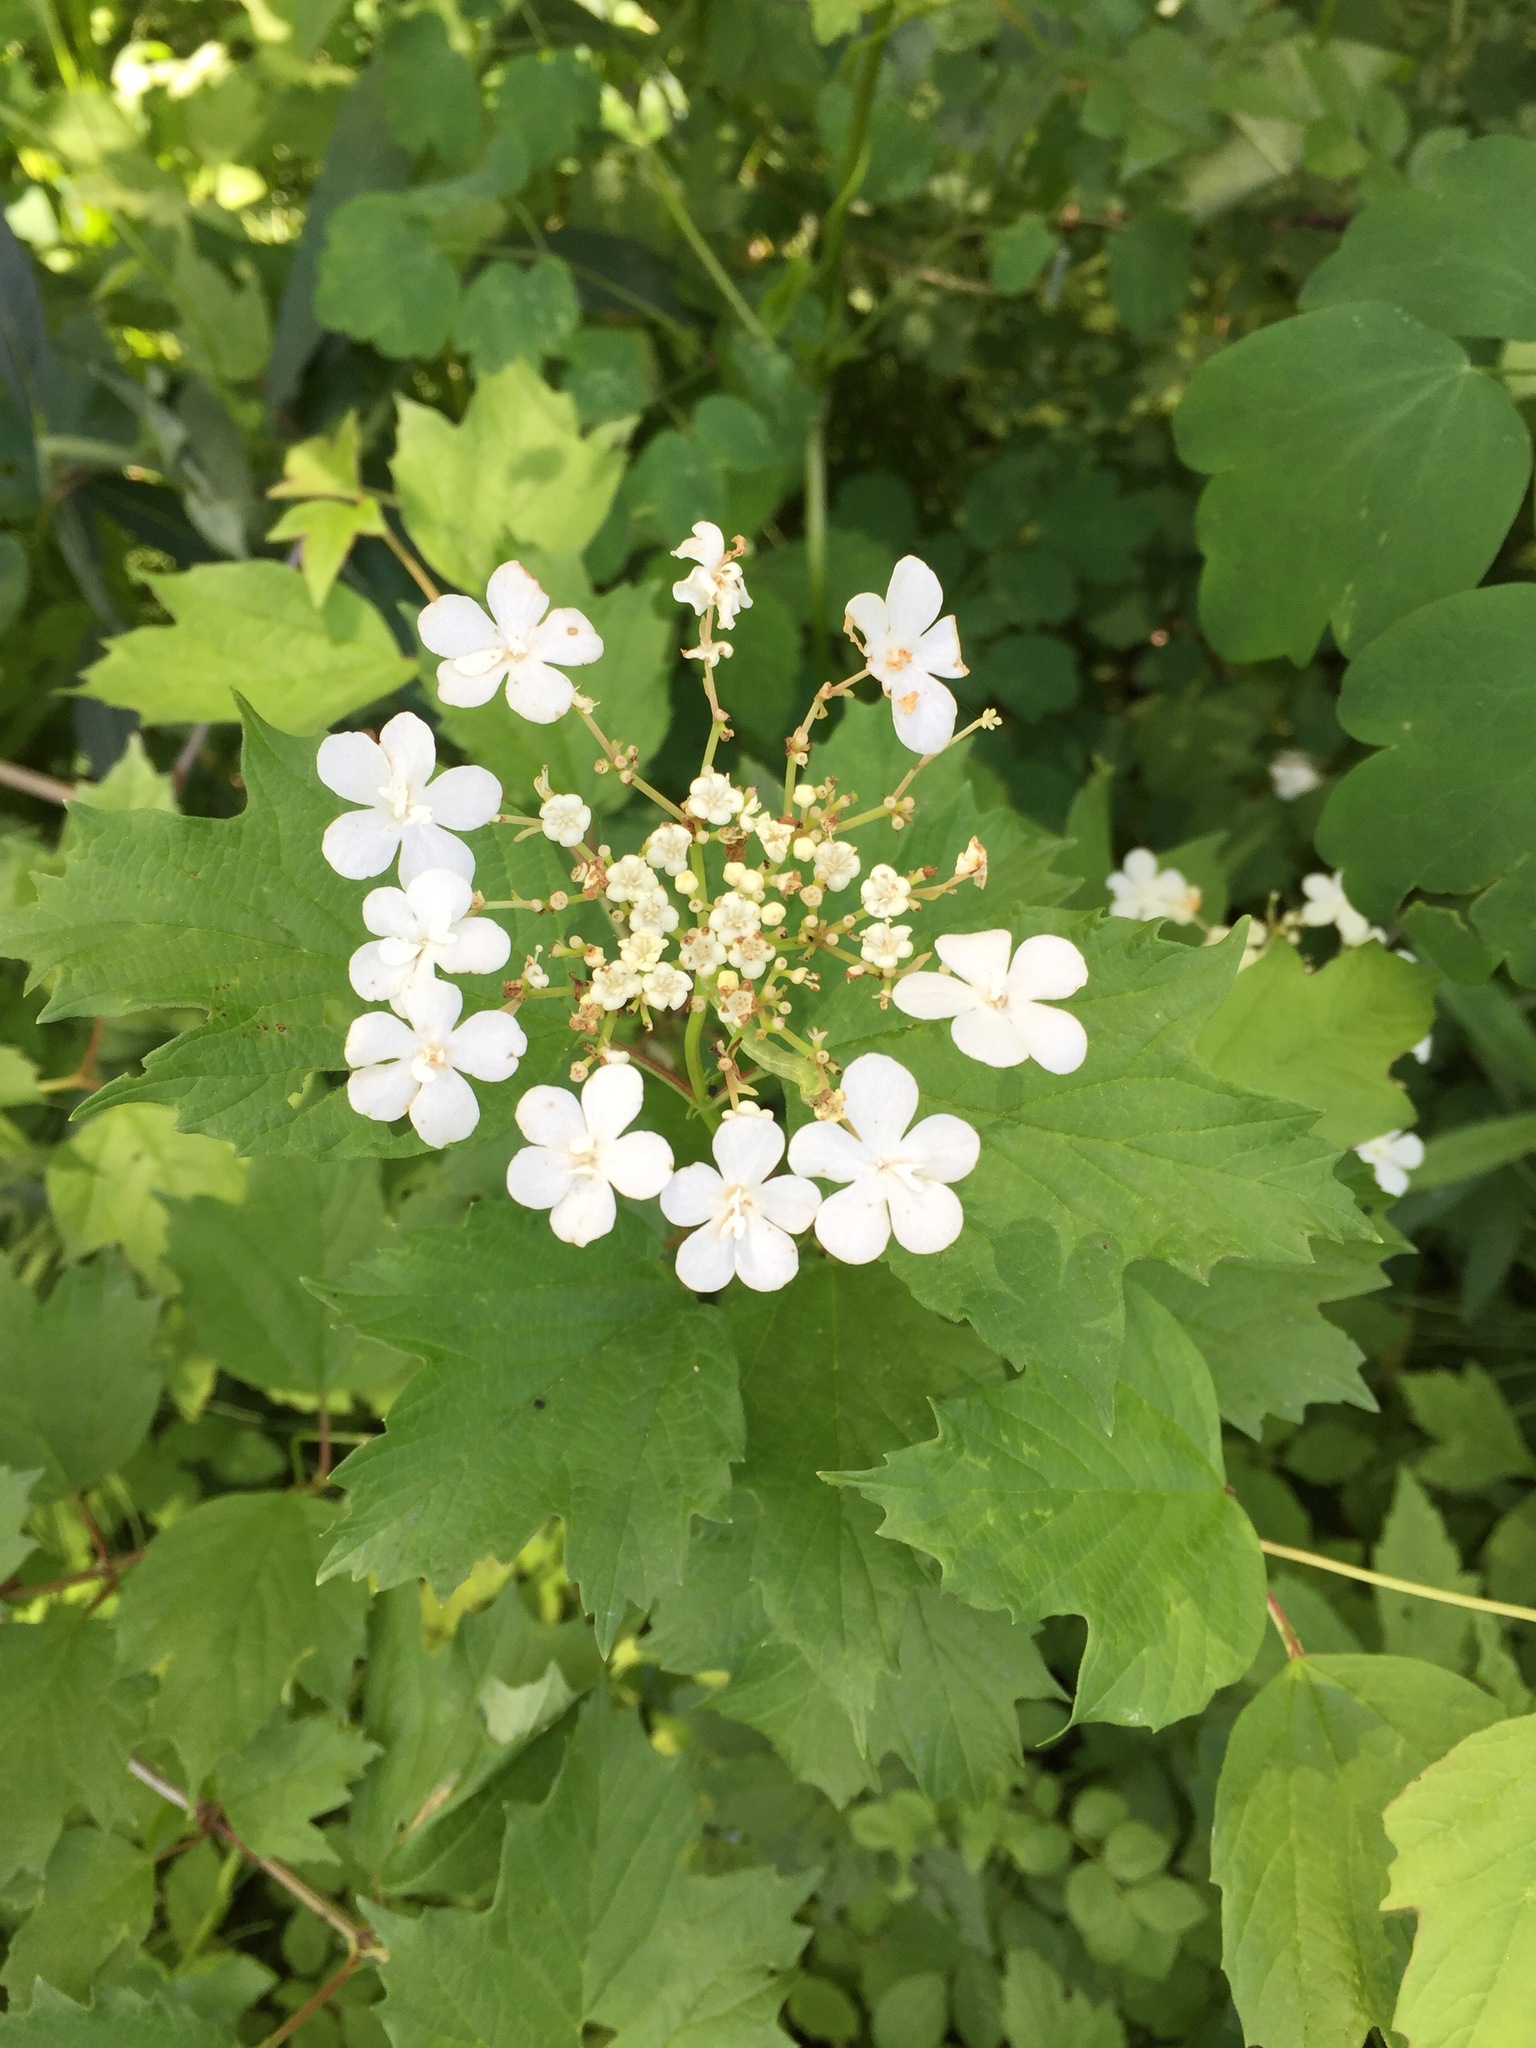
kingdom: Plantae
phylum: Tracheophyta
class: Magnoliopsida
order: Dipsacales
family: Viburnaceae
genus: Viburnum
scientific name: Viburnum opulus
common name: Guelder-rose
